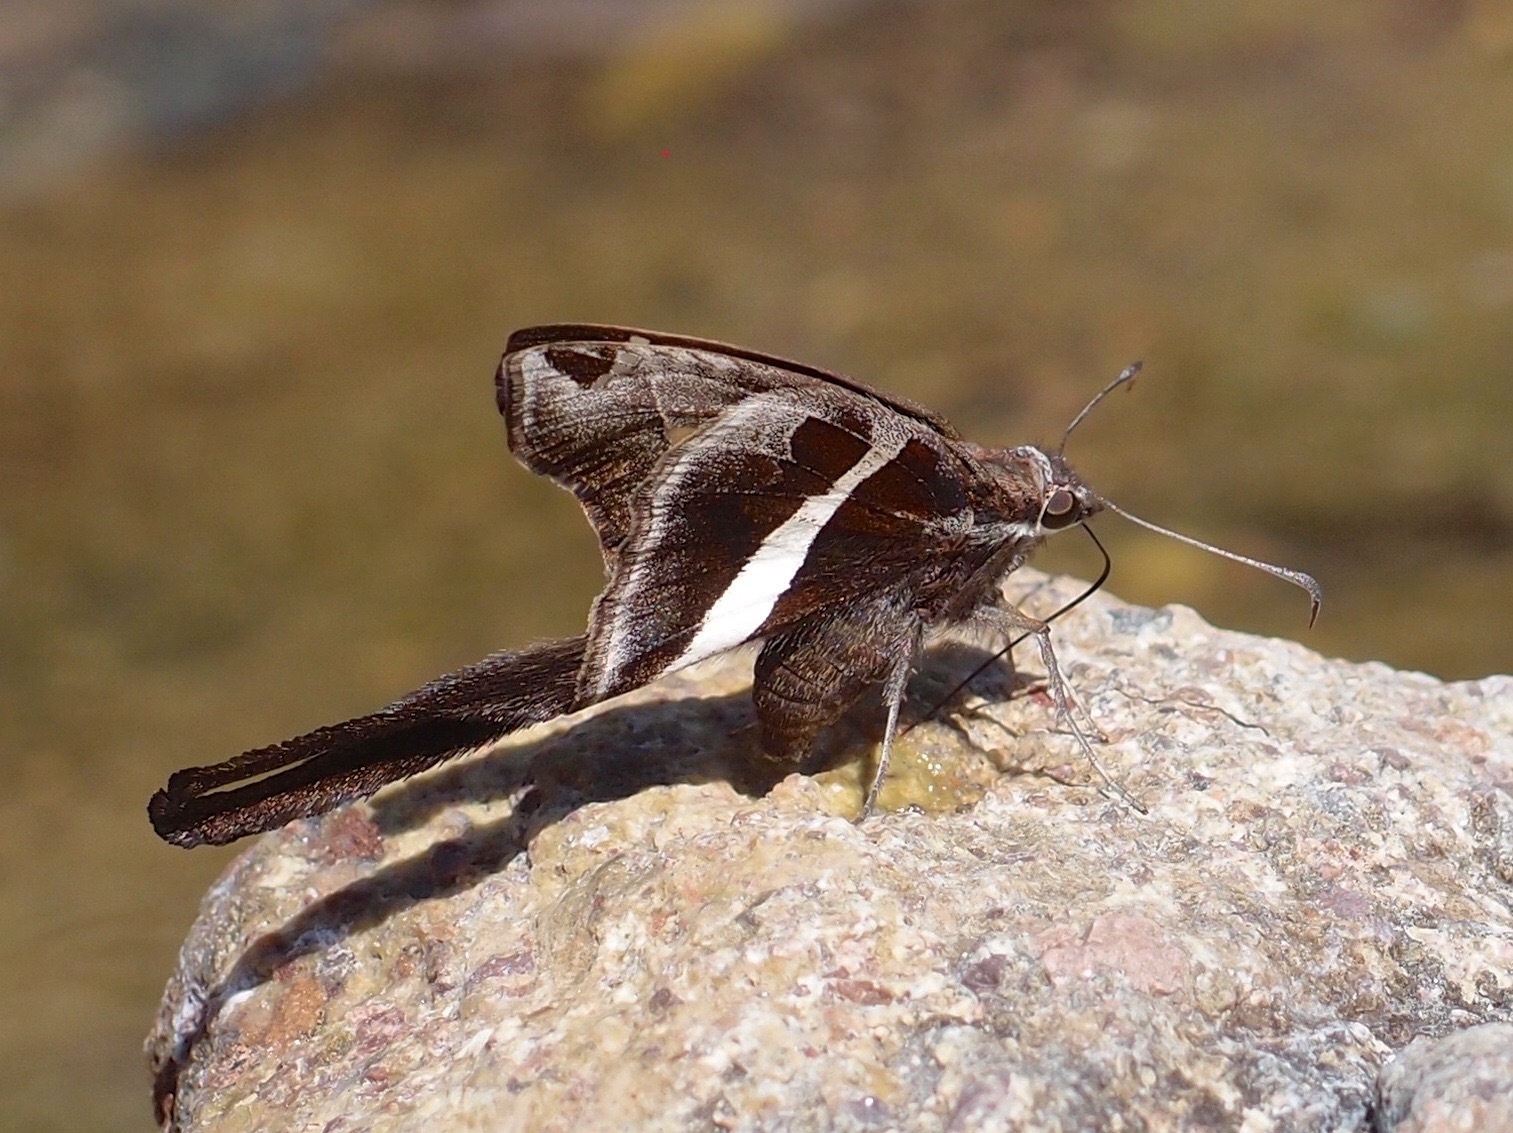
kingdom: Animalia
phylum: Arthropoda
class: Insecta
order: Lepidoptera
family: Hesperiidae
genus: Chioides
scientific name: Chioides catillus
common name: Silverbanded skipper
